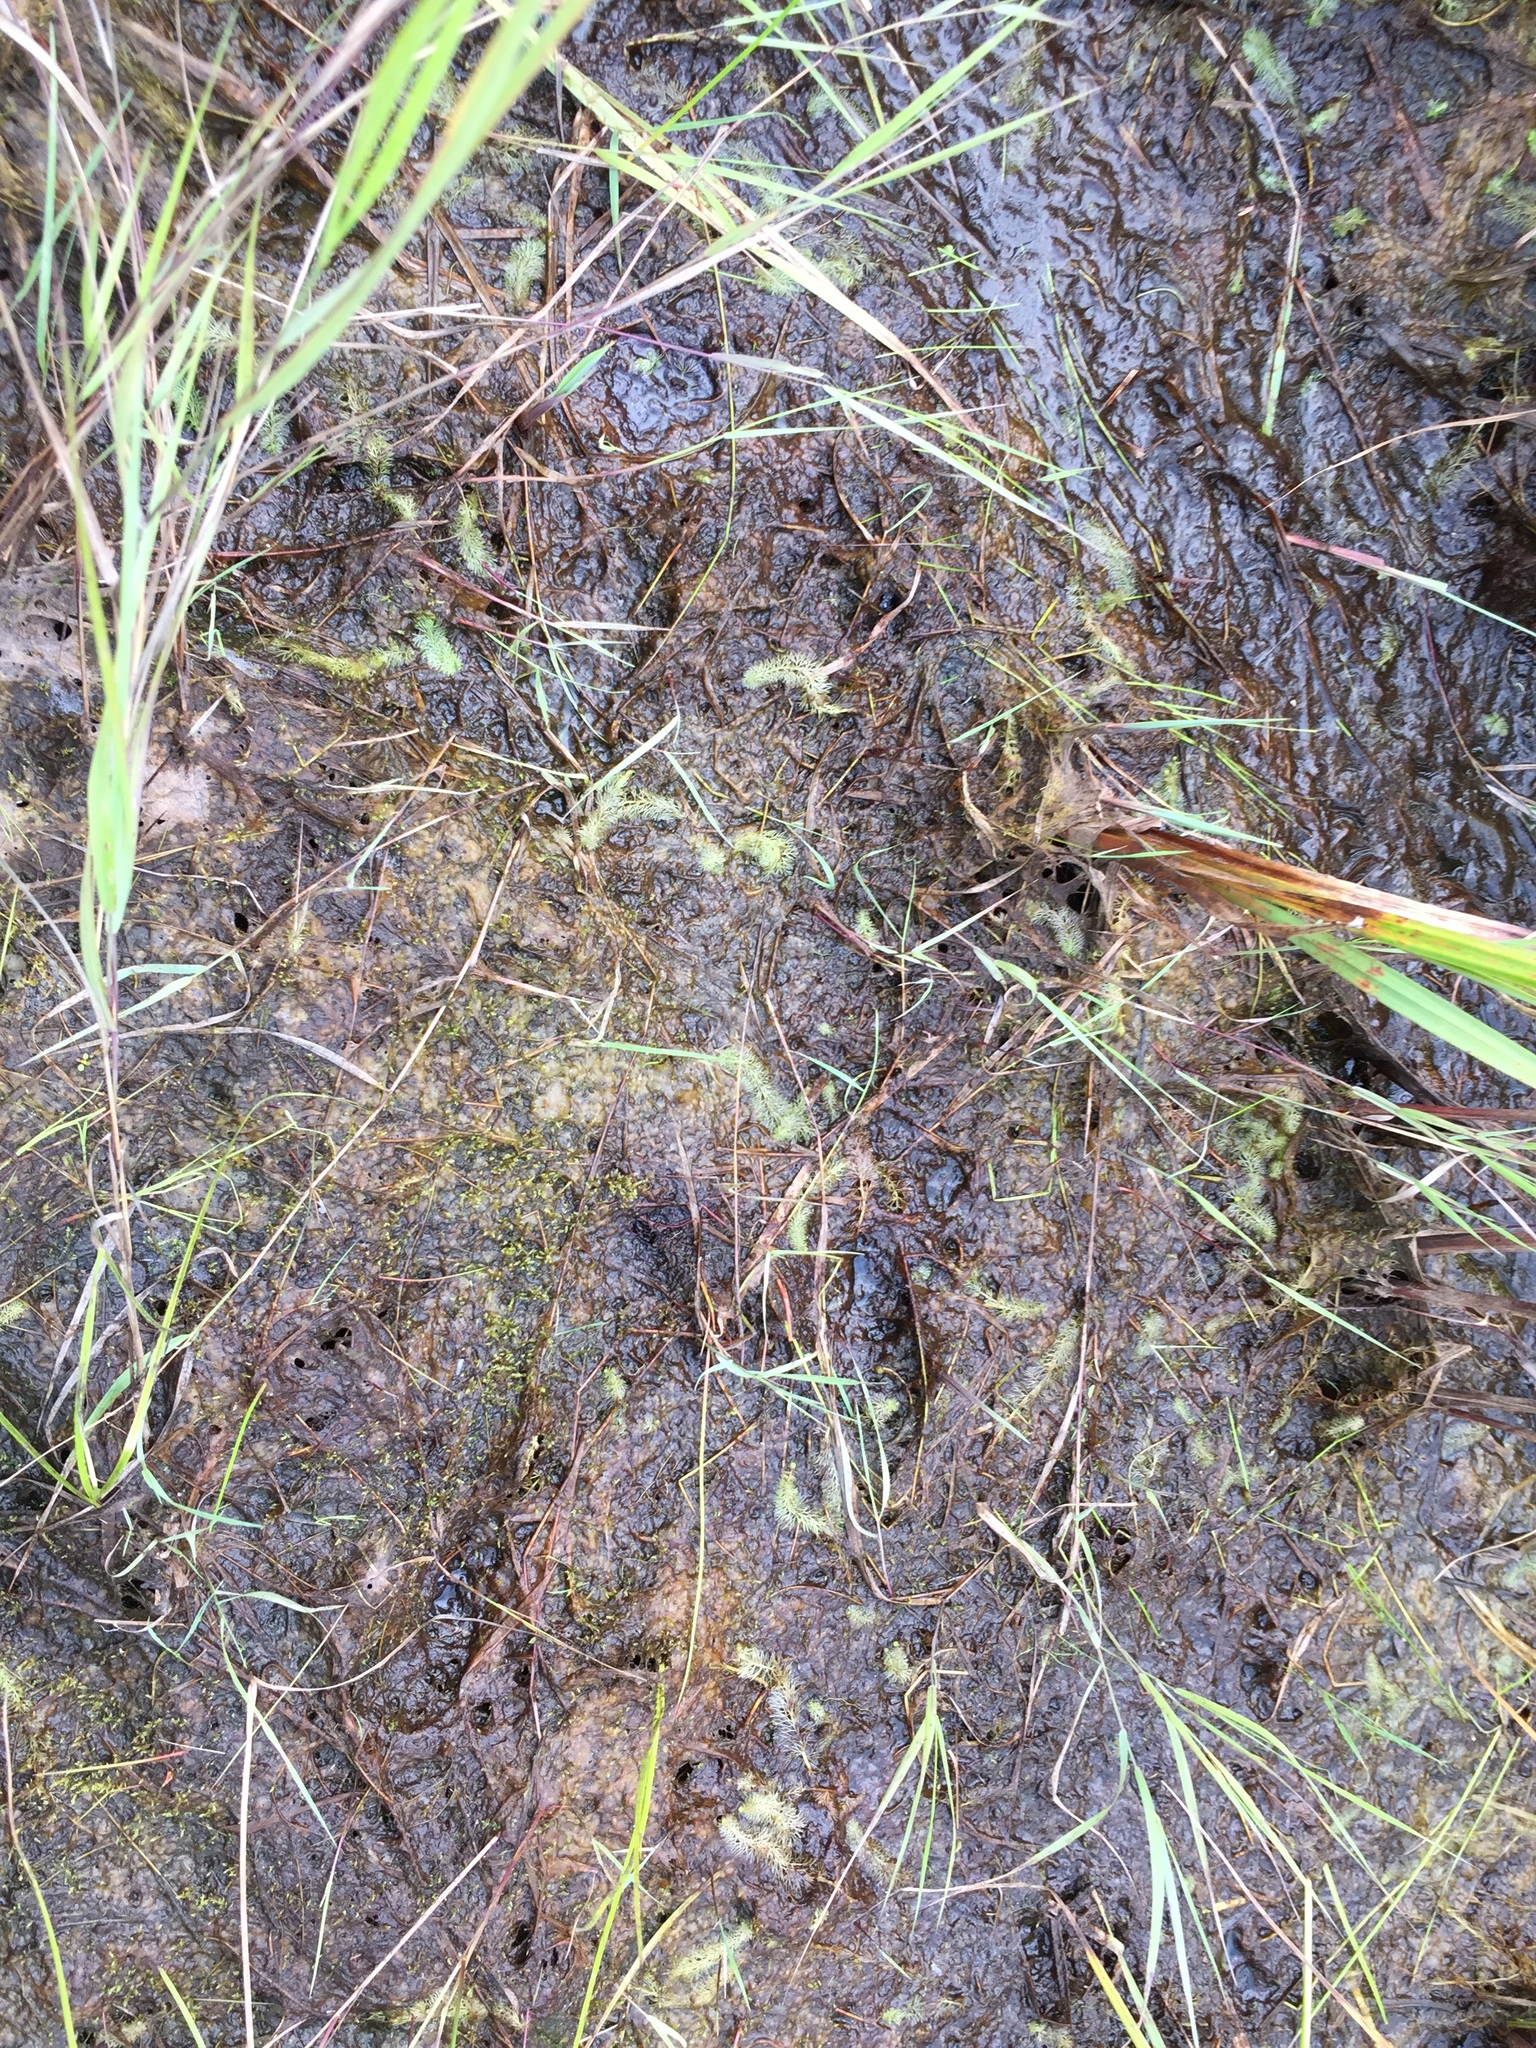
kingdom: Plantae
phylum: Tracheophyta
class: Magnoliopsida
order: Lamiales
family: Lentibulariaceae
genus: Utricularia
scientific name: Utricularia intermedia
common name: Intermediate bladderwort
